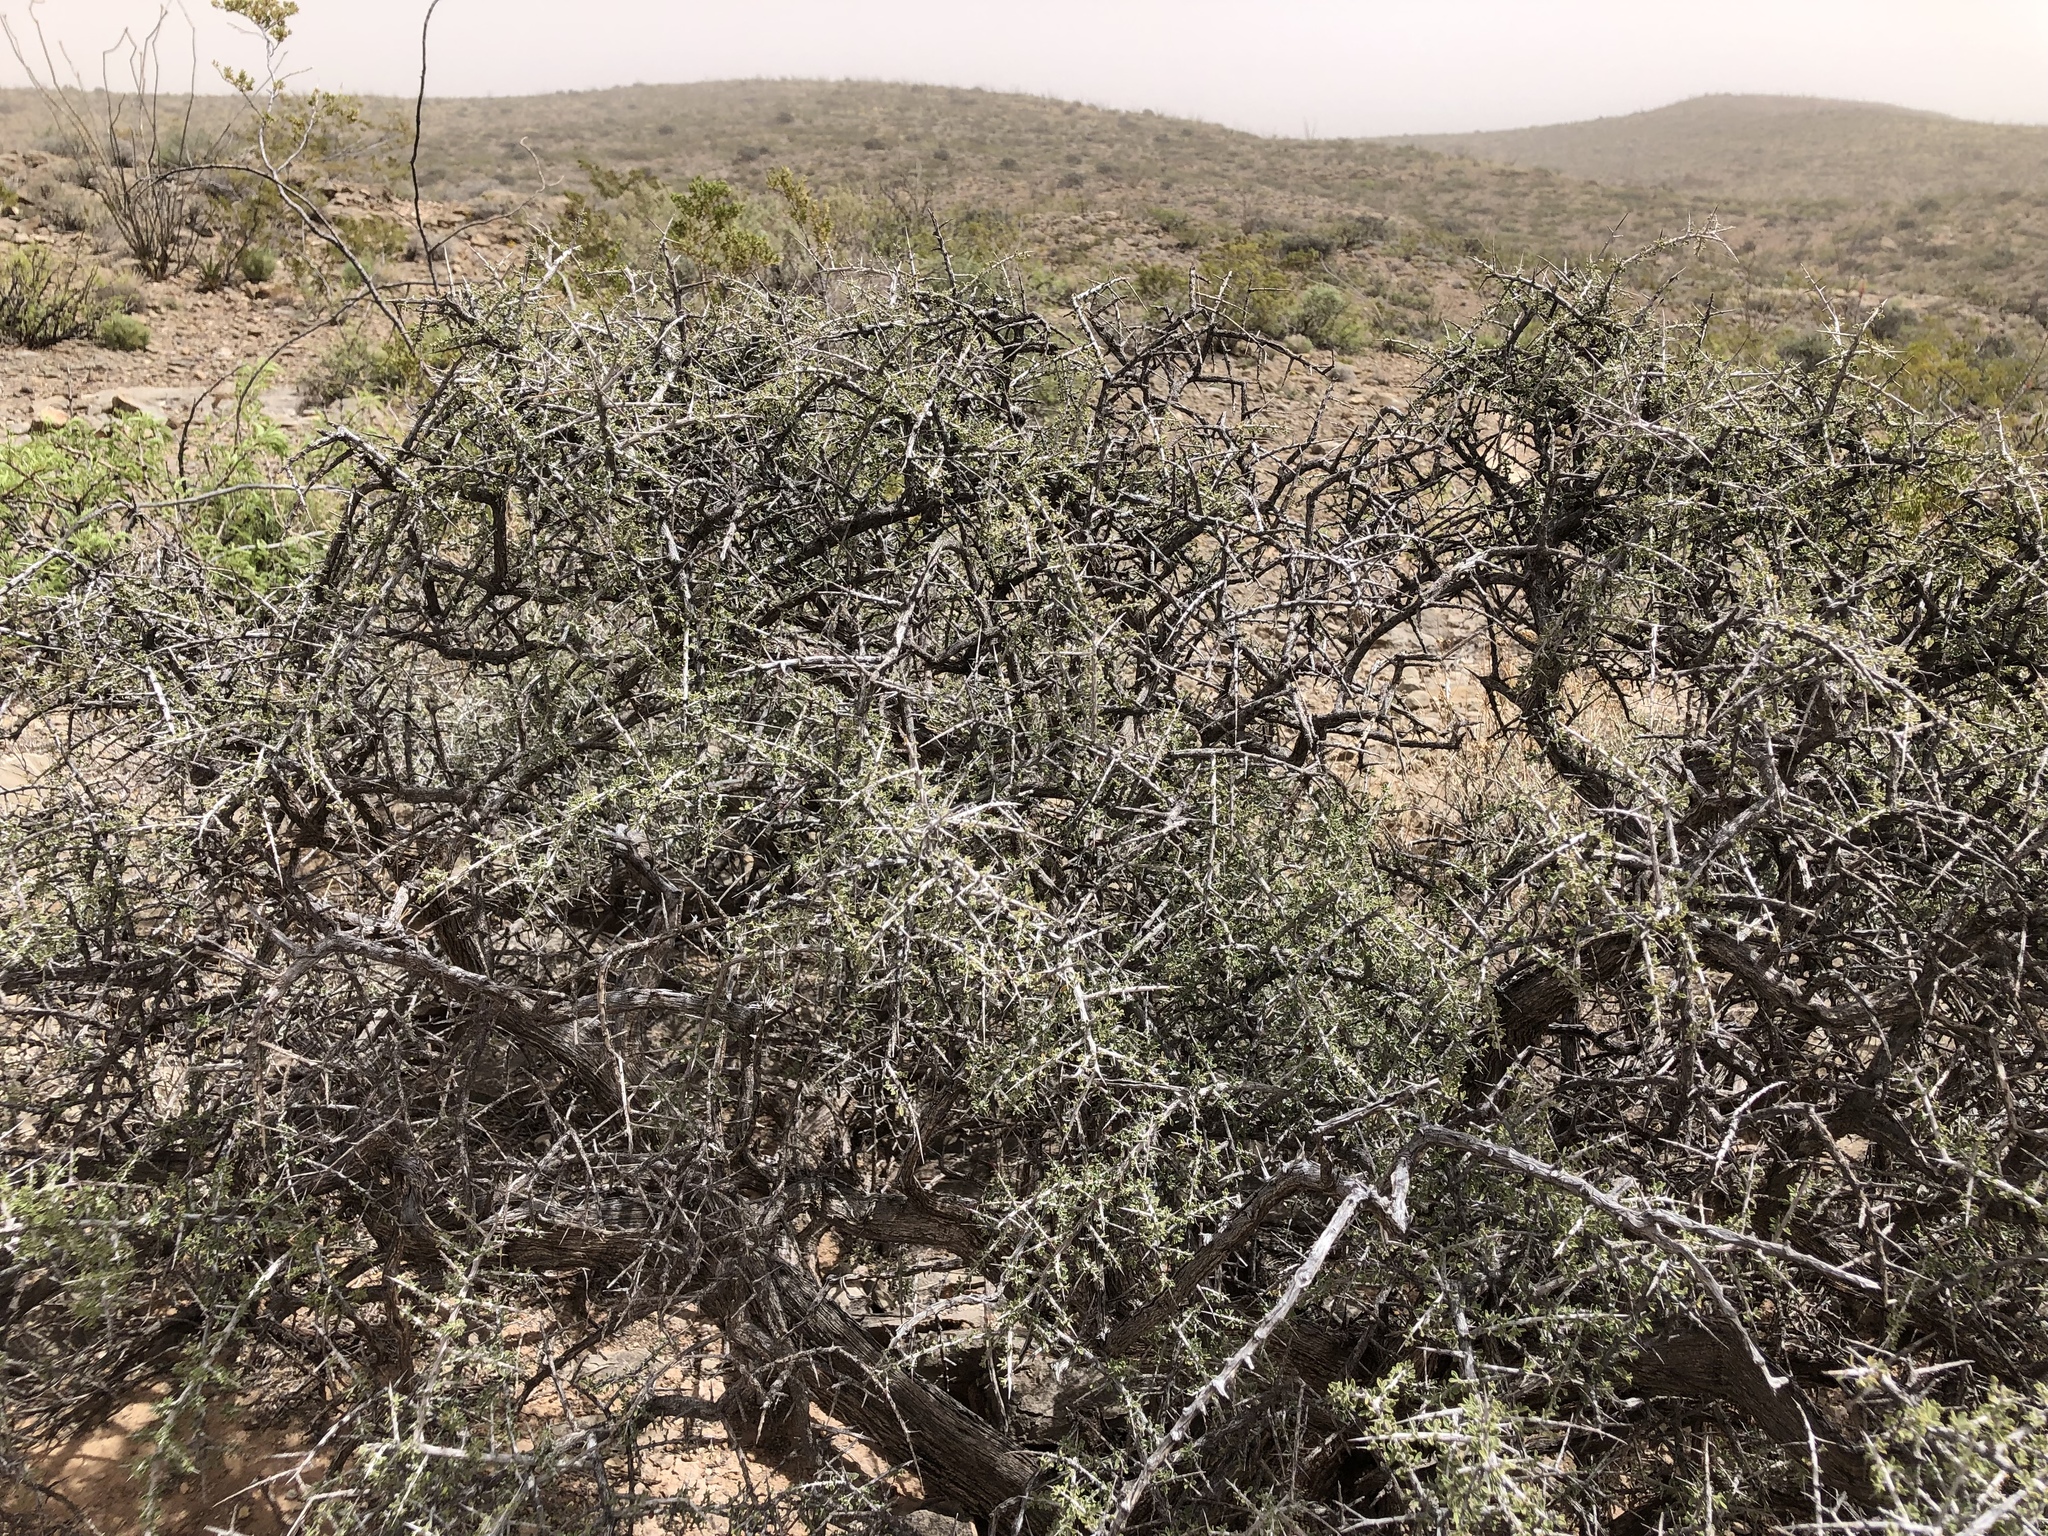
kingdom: Plantae
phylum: Tracheophyta
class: Magnoliopsida
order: Rosales
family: Rhamnaceae
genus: Condalia
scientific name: Condalia warnockii
